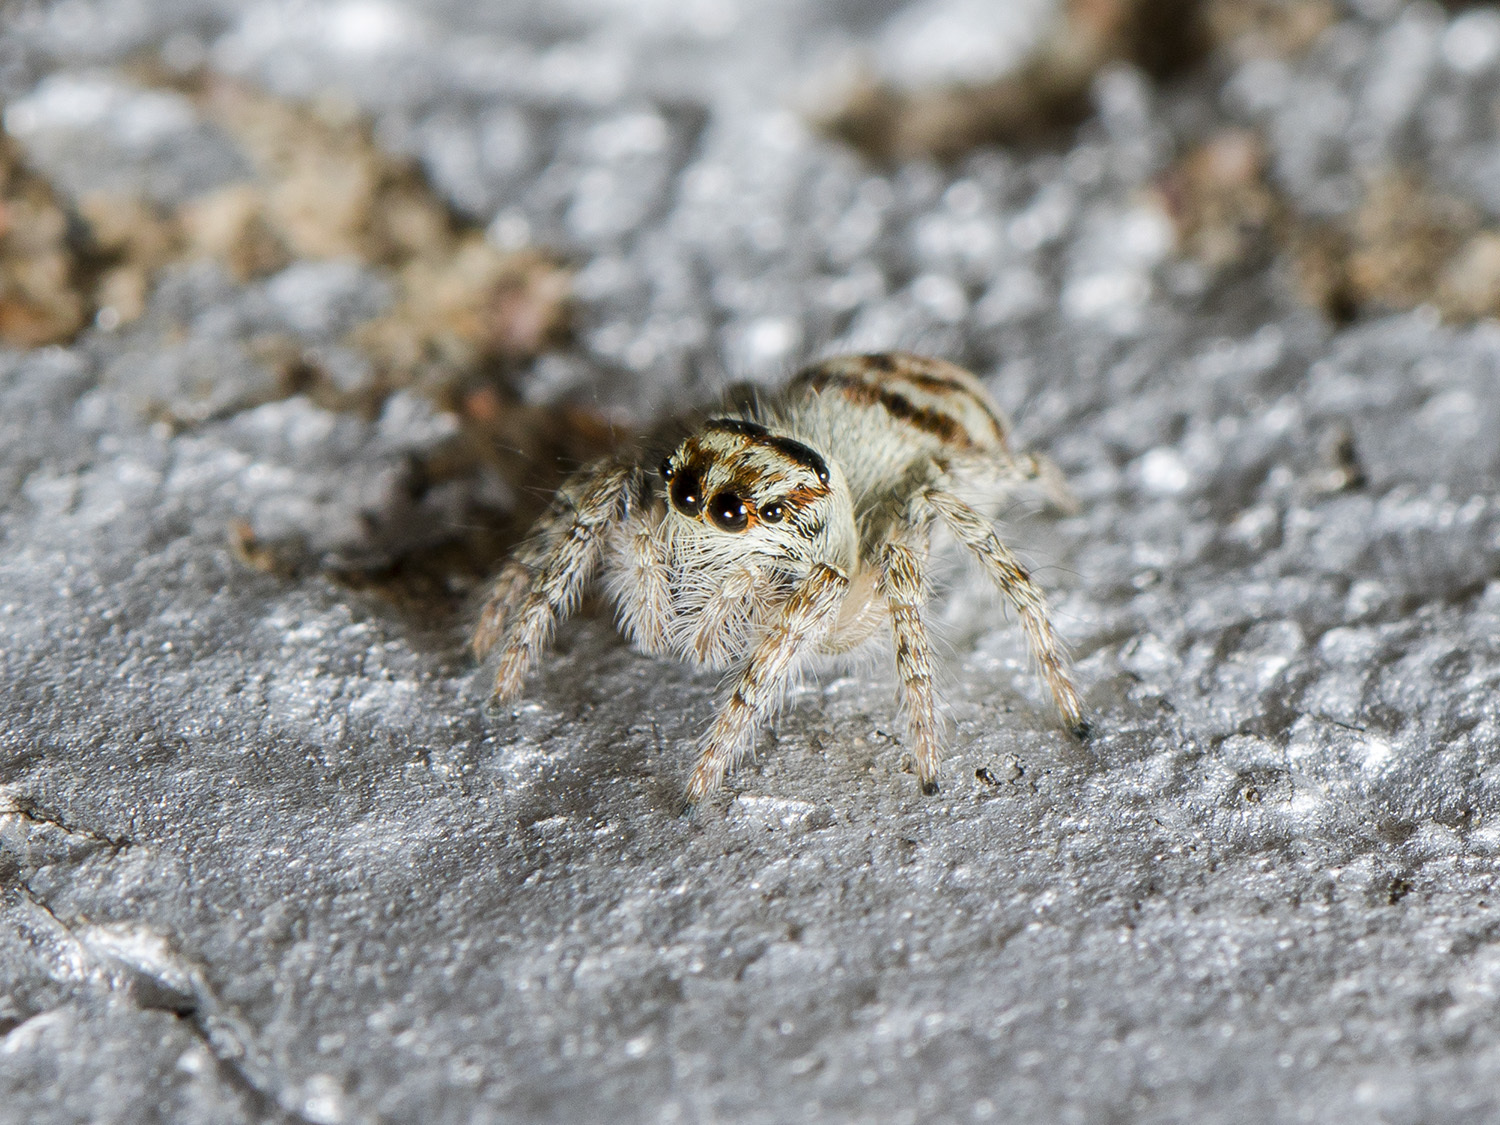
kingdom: Animalia
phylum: Arthropoda
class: Arachnida
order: Araneae
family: Salticidae
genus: Philaeus
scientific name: Philaeus chrysops
